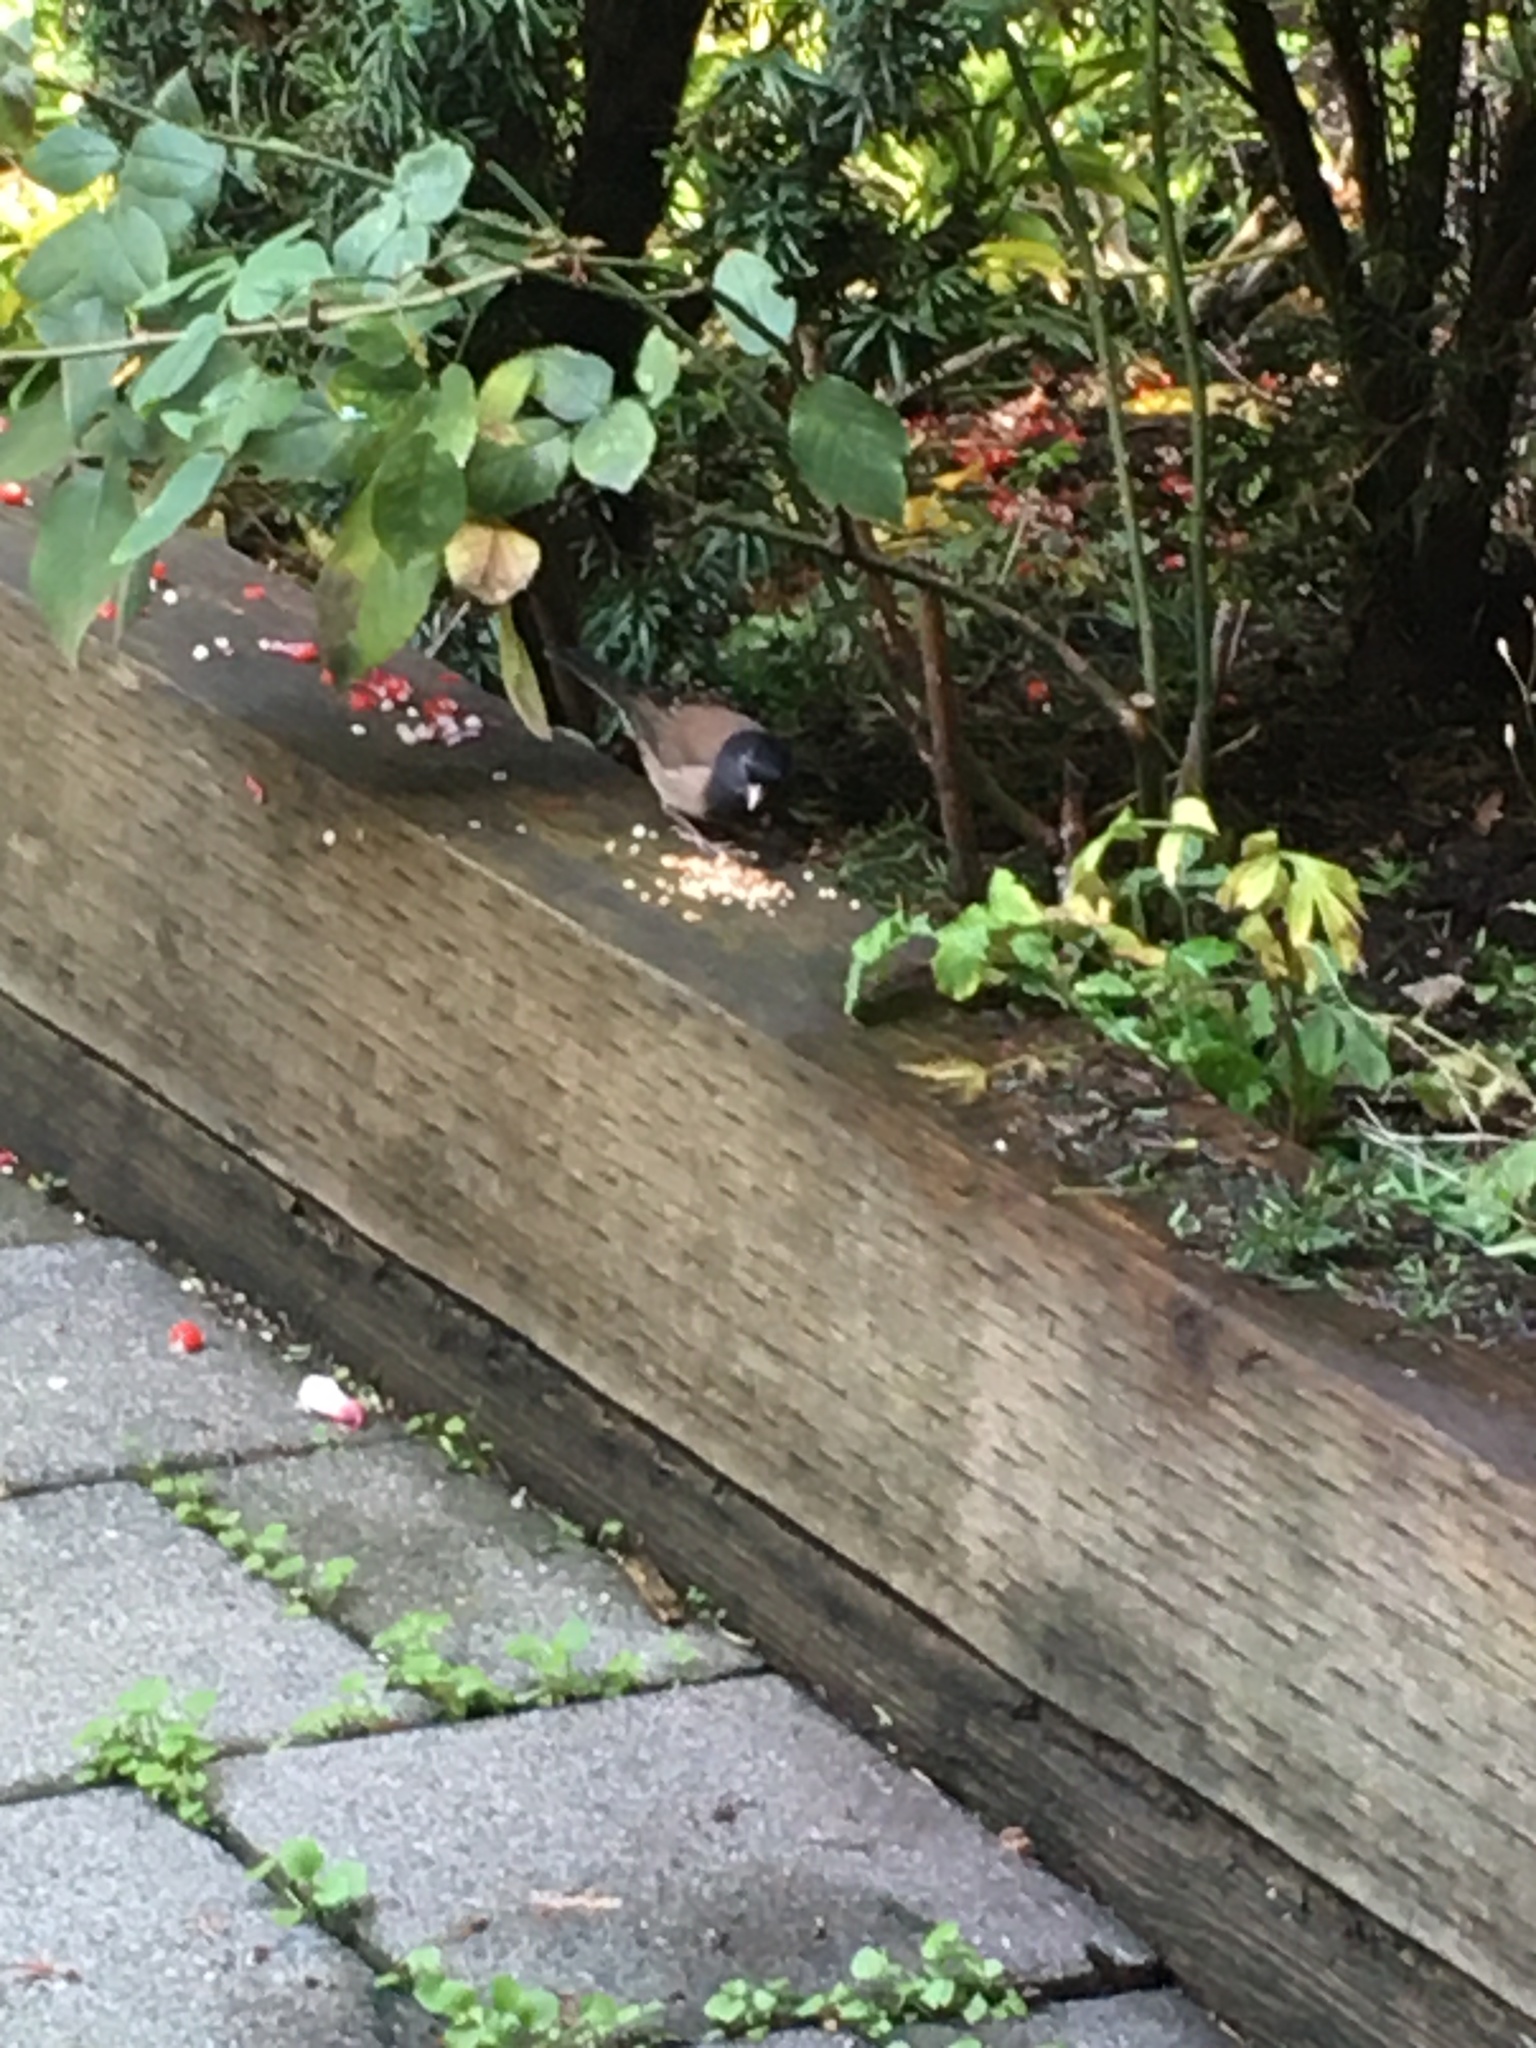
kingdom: Animalia
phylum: Chordata
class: Aves
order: Passeriformes
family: Passerellidae
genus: Junco
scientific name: Junco hyemalis
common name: Dark-eyed junco
